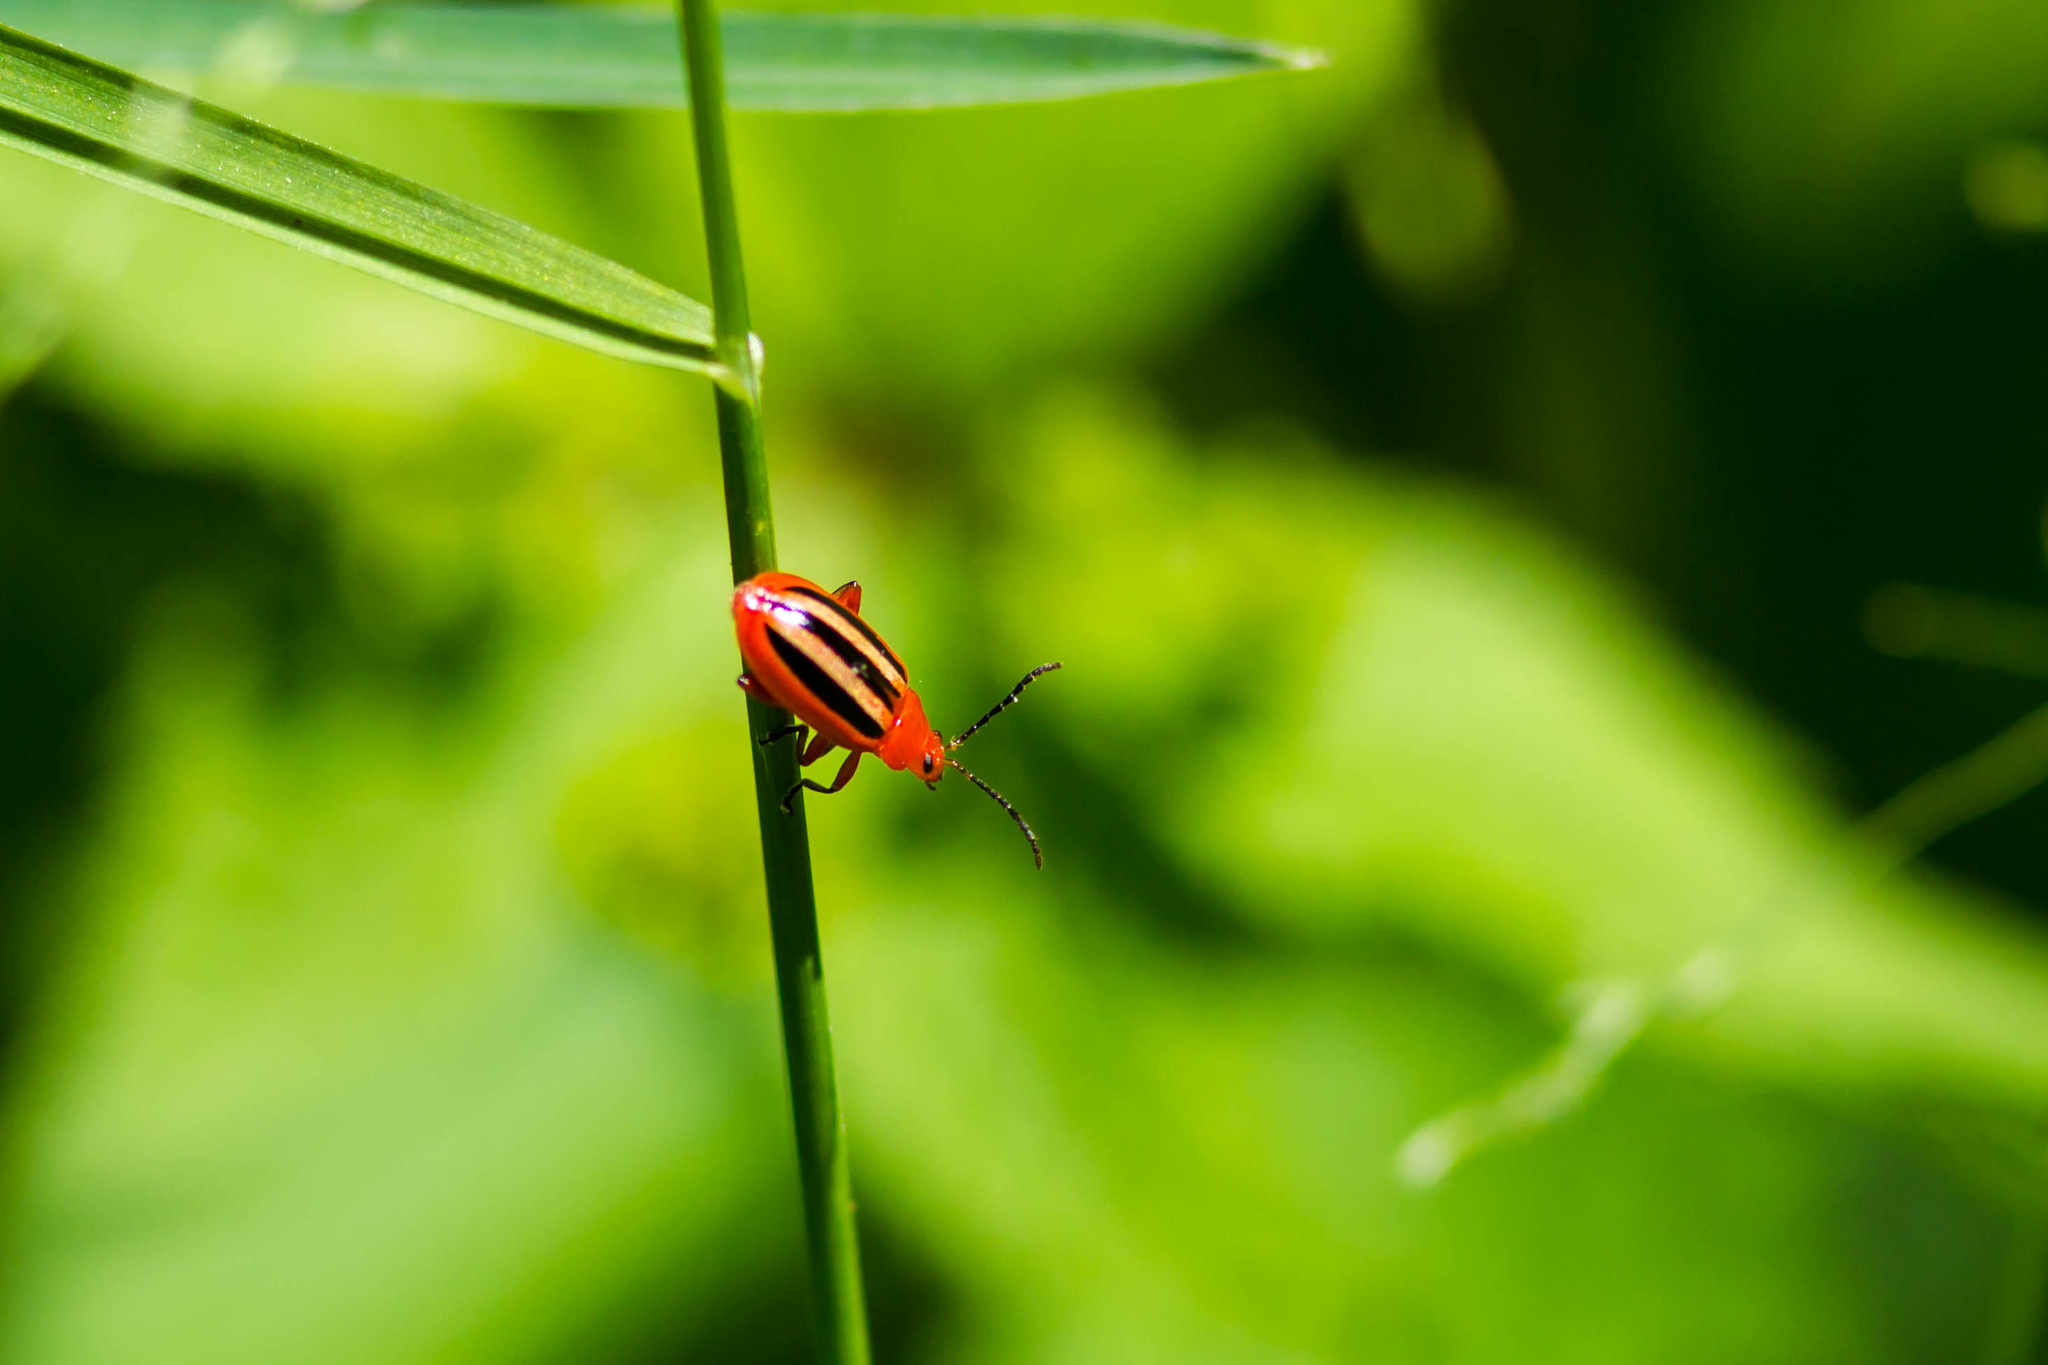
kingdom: Animalia
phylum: Arthropoda
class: Insecta
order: Coleoptera
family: Chrysomelidae
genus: Disonycha
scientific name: Disonycha discoidea
